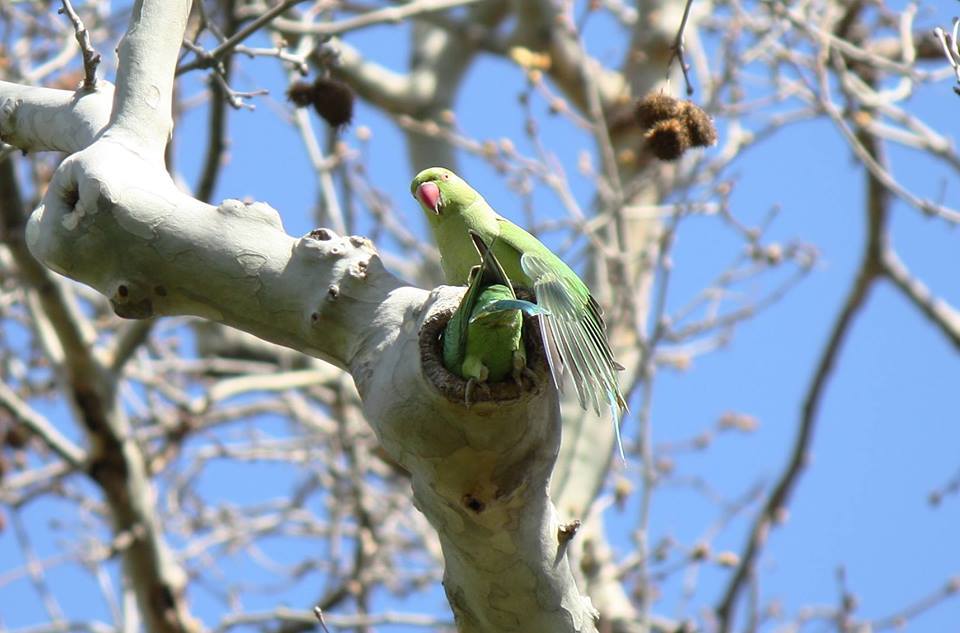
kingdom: Animalia
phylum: Chordata
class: Aves
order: Psittaciformes
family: Psittacidae
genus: Psittacula
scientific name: Psittacula krameri
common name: Rose-ringed parakeet
